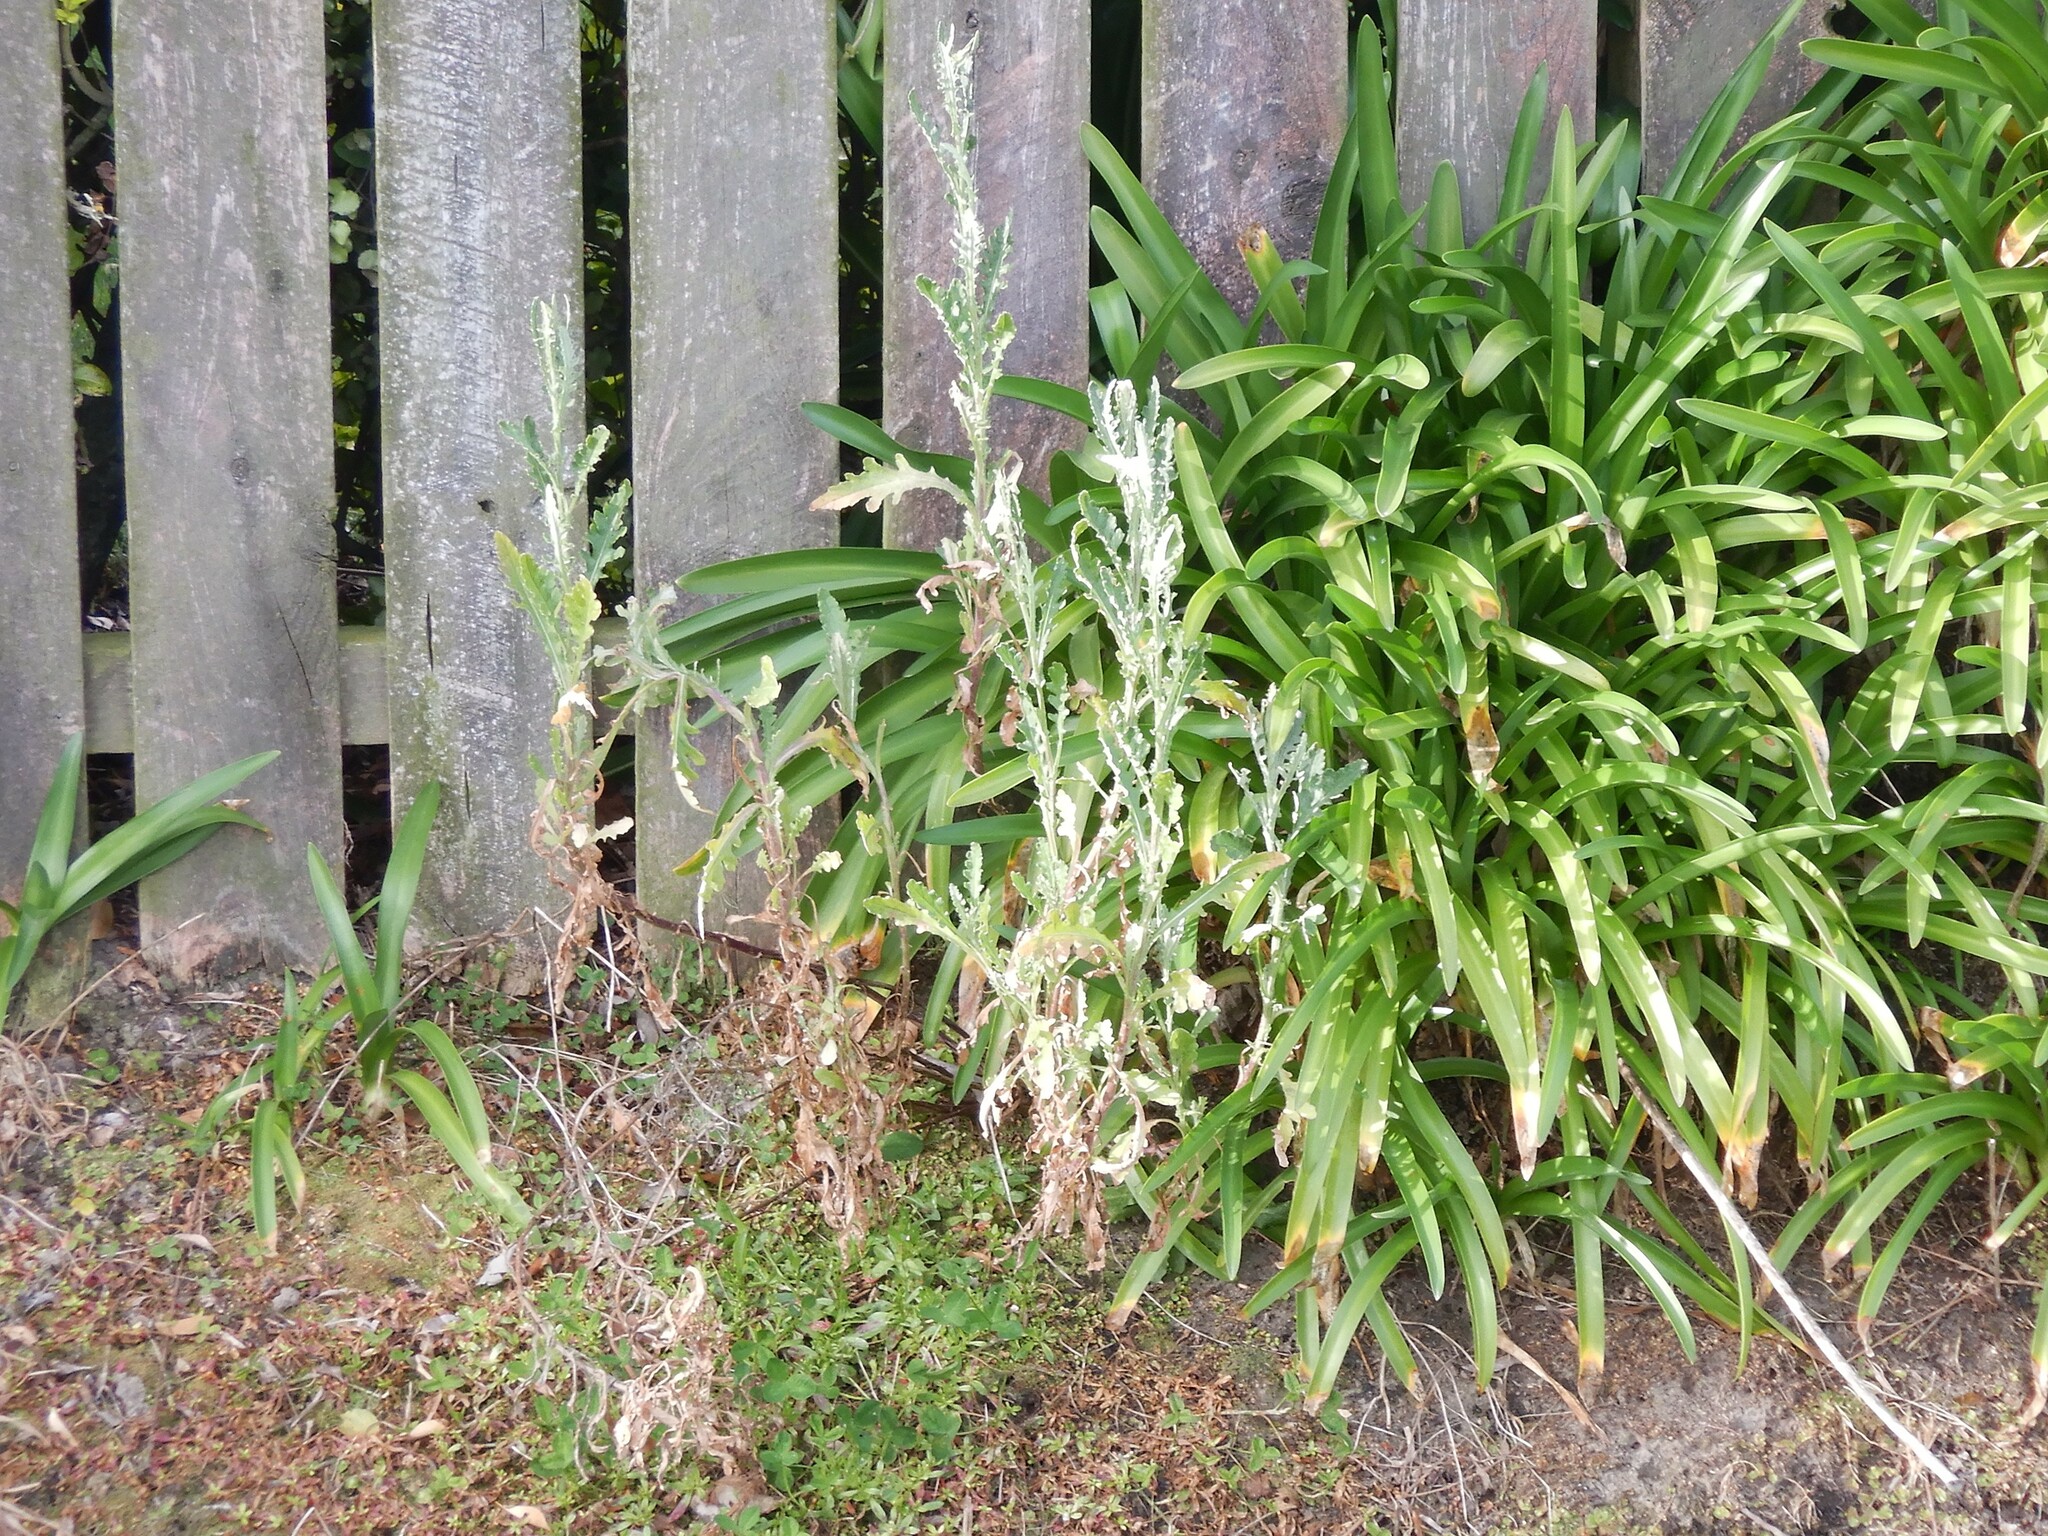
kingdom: Plantae
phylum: Tracheophyta
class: Magnoliopsida
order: Asterales
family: Asteraceae
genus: Senecio
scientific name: Senecio glomeratus
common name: Cutleaf burnweed
